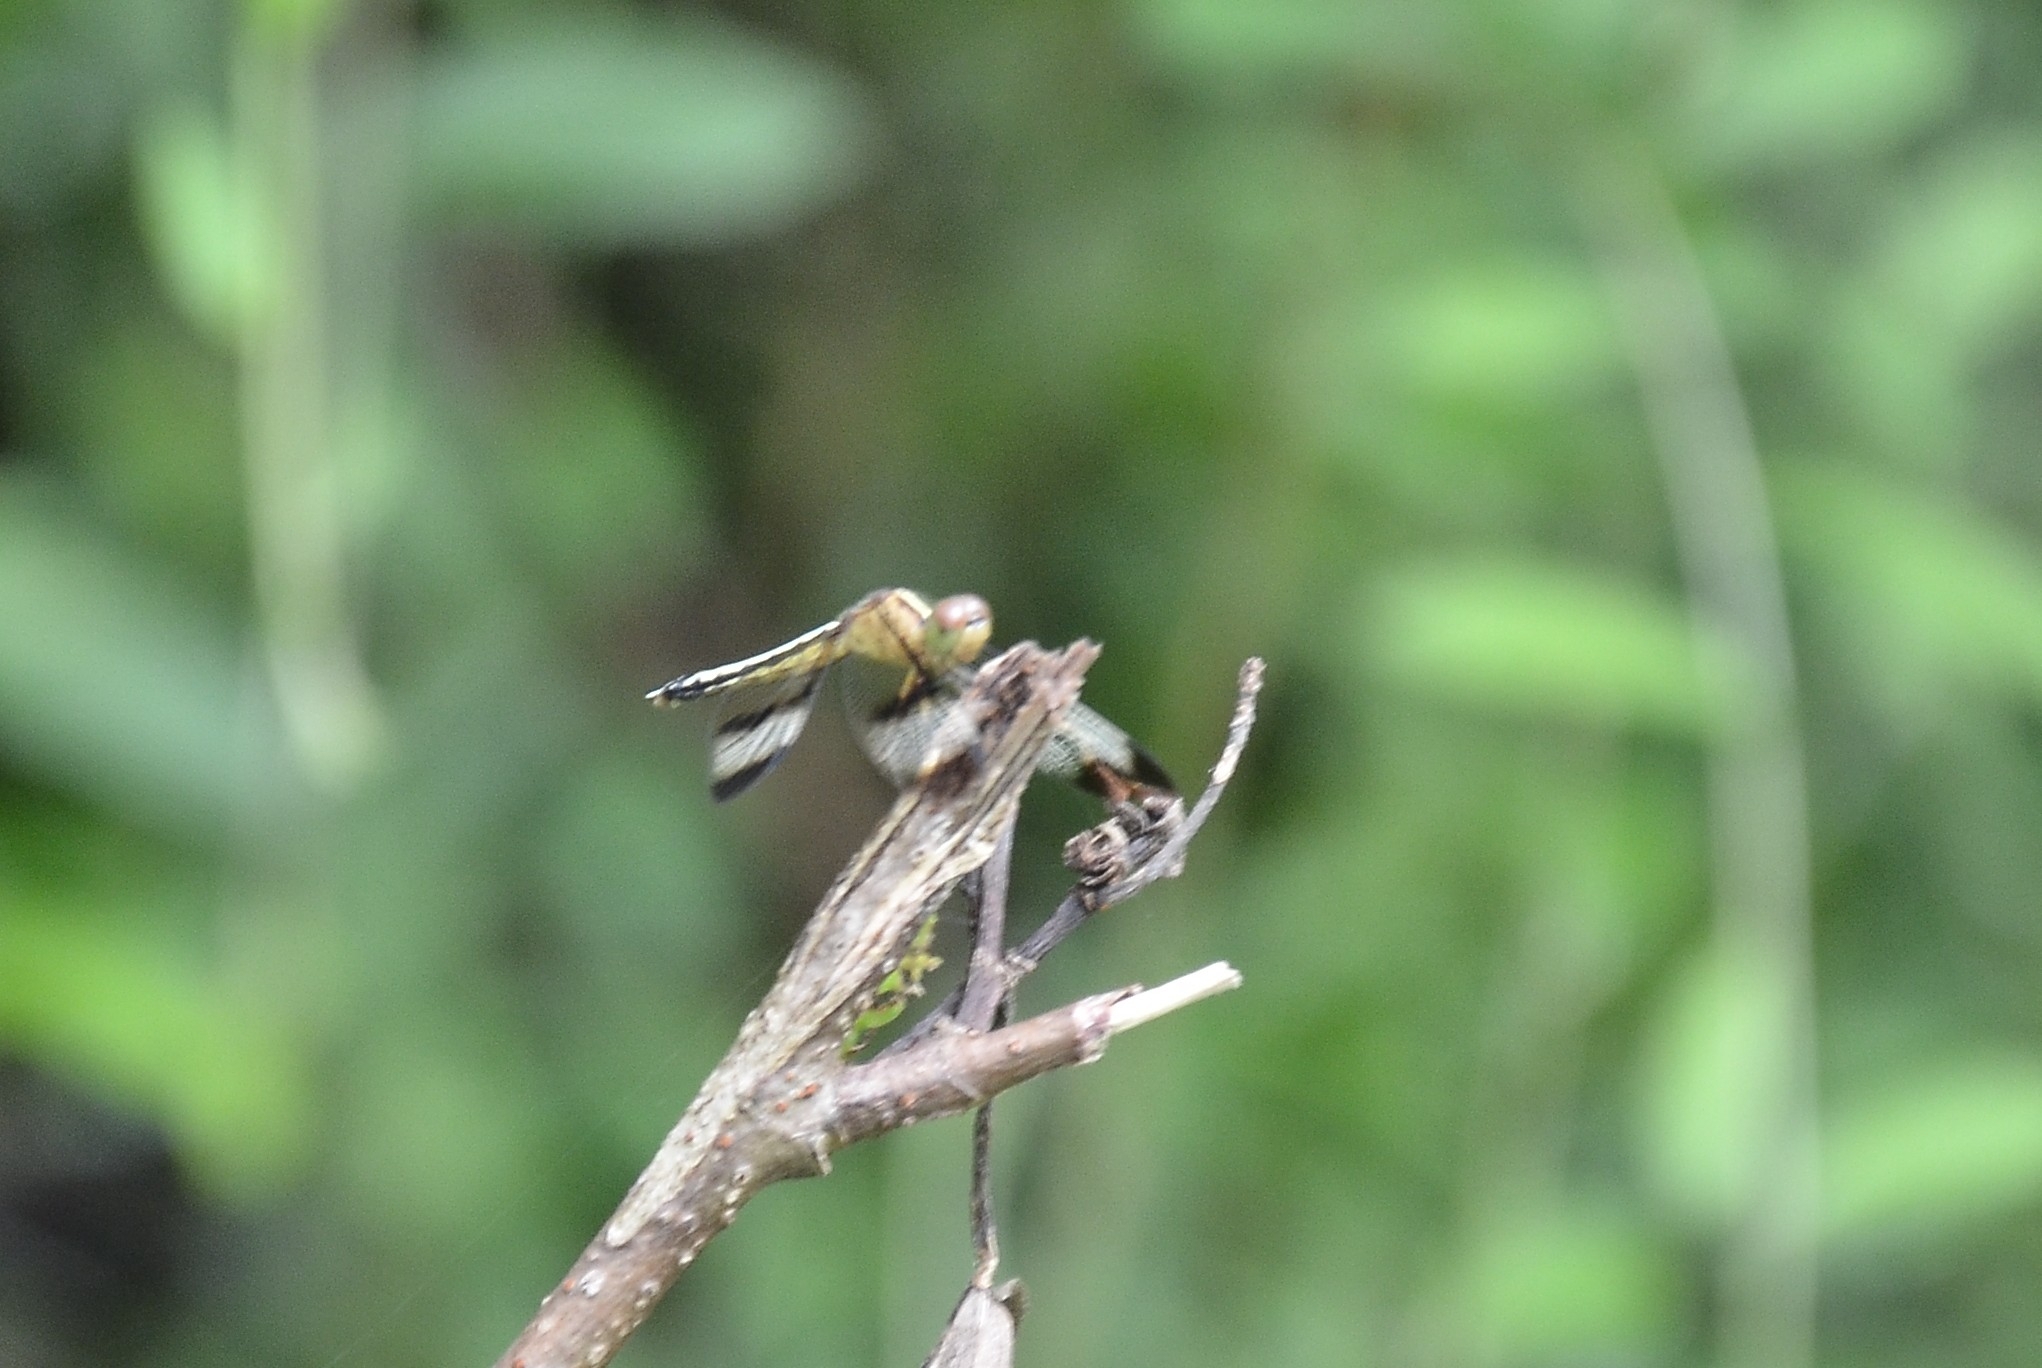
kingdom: Animalia
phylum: Arthropoda
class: Insecta
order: Odonata
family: Libellulidae
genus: Neurothemis
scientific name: Neurothemis tullia
